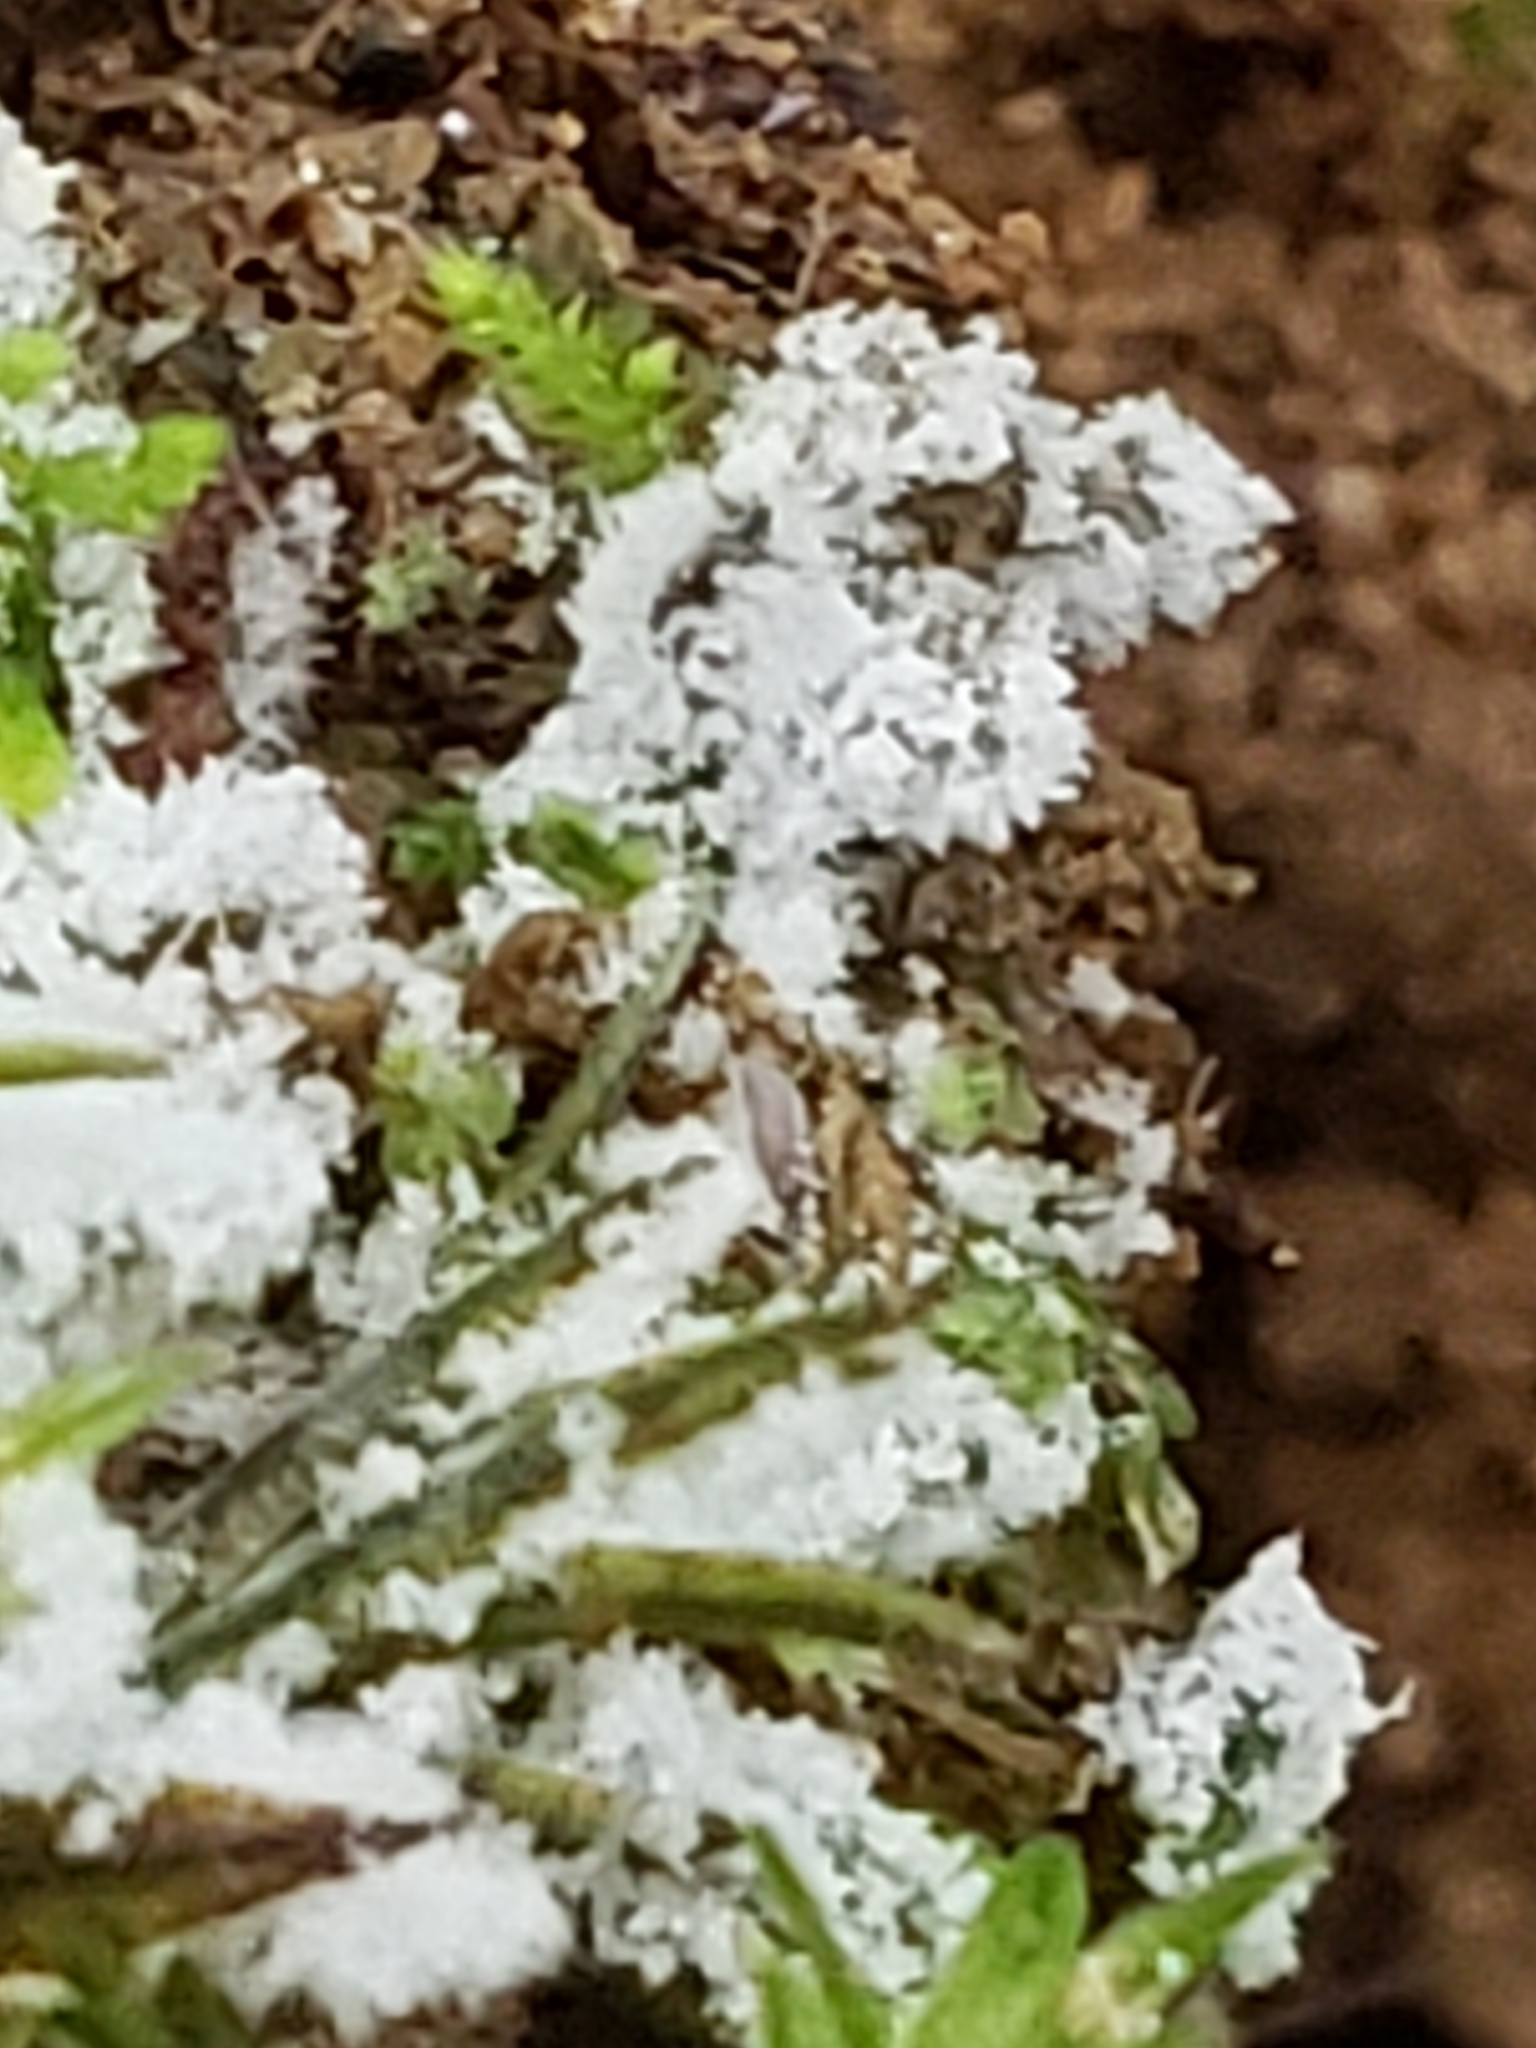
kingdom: Protozoa
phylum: Mycetozoa
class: Protosteliomycetes
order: Ceratiomyxales
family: Ceratiomyxaceae
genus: Ceratiomyxa
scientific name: Ceratiomyxa fruticulosa
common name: Honeycomb coral slime mold
